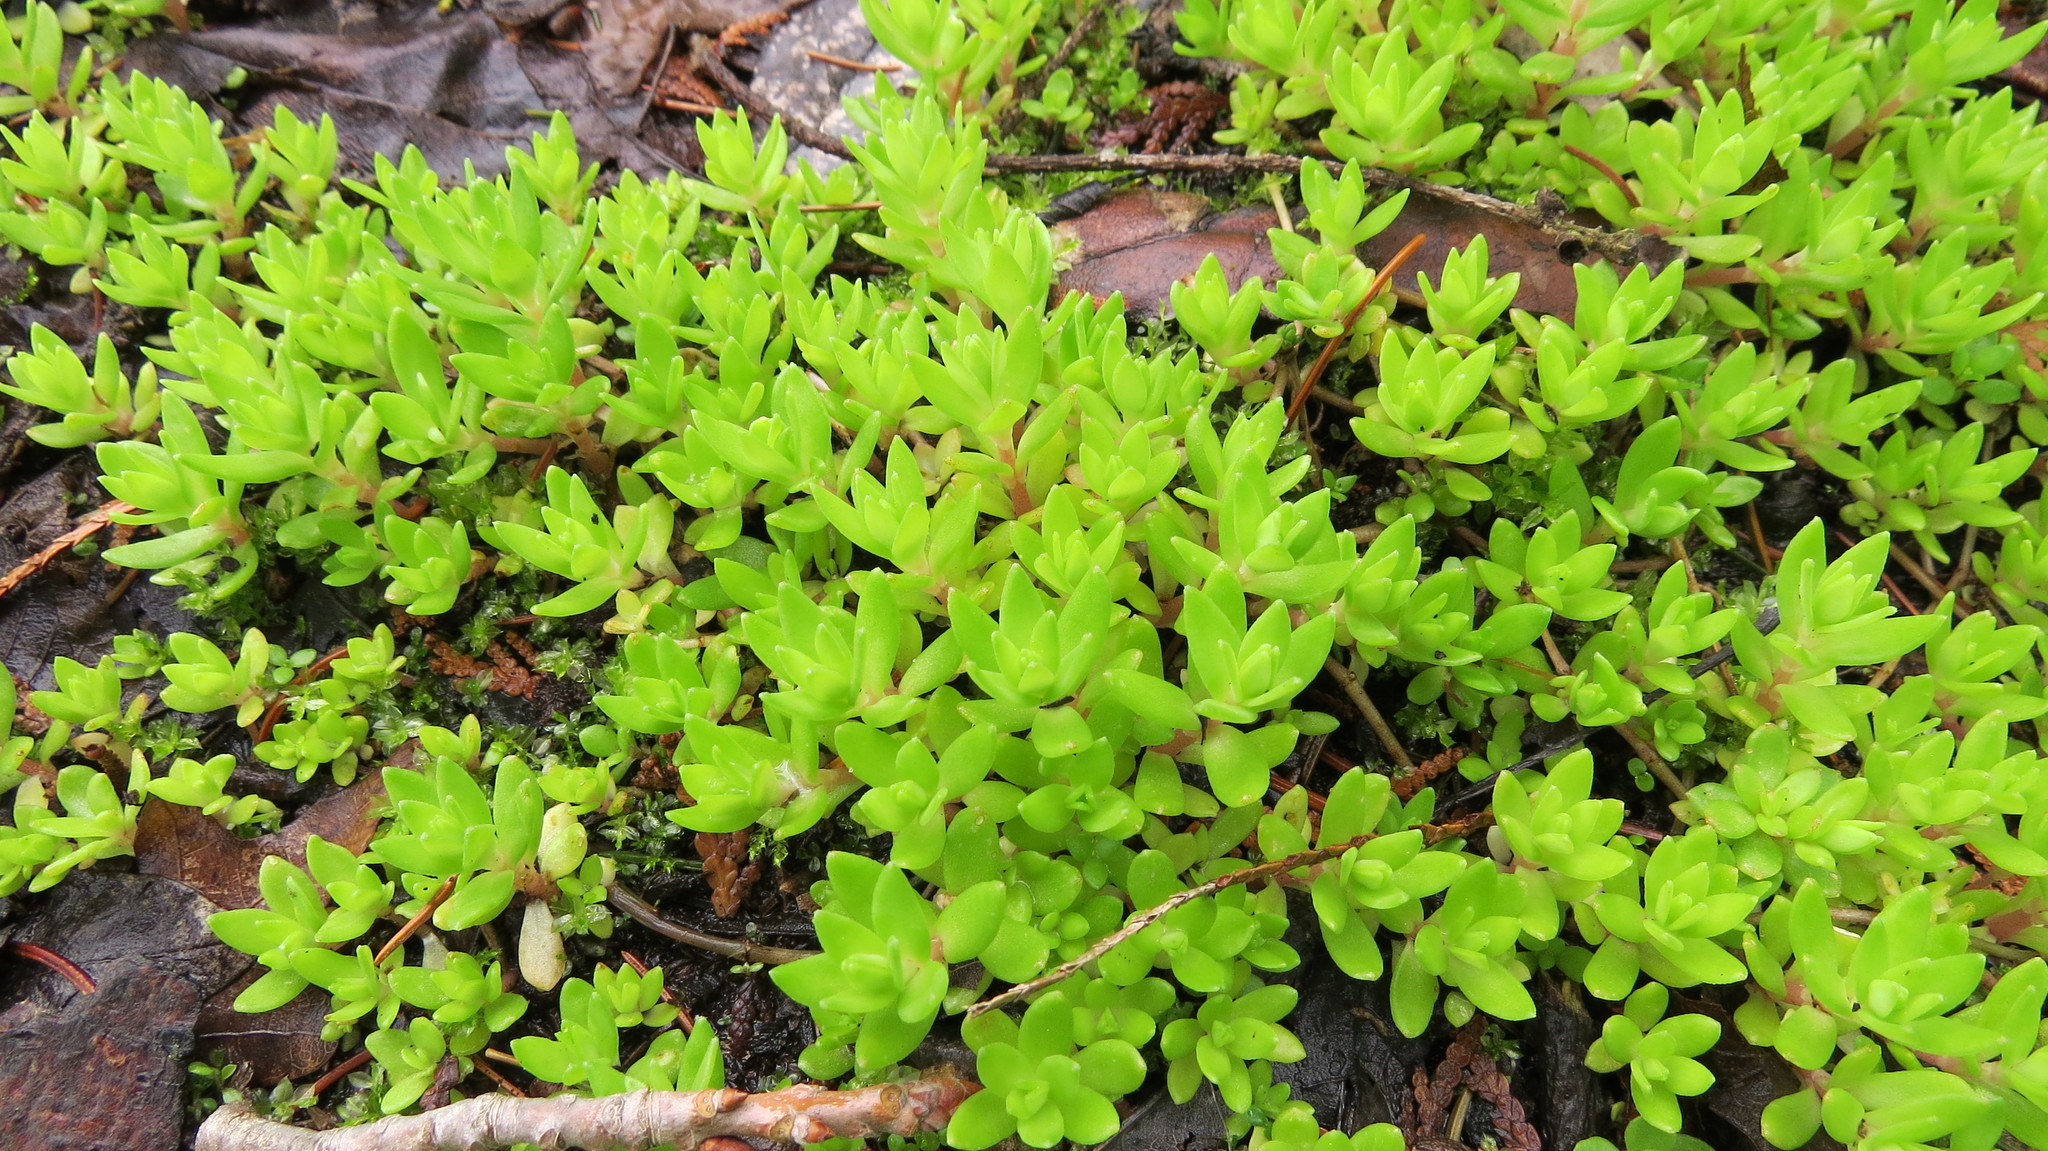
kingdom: Plantae
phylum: Tracheophyta
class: Magnoliopsida
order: Saxifragales
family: Crassulaceae
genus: Sedum
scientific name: Sedum sarmentosum
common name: Stringy stonecrop
